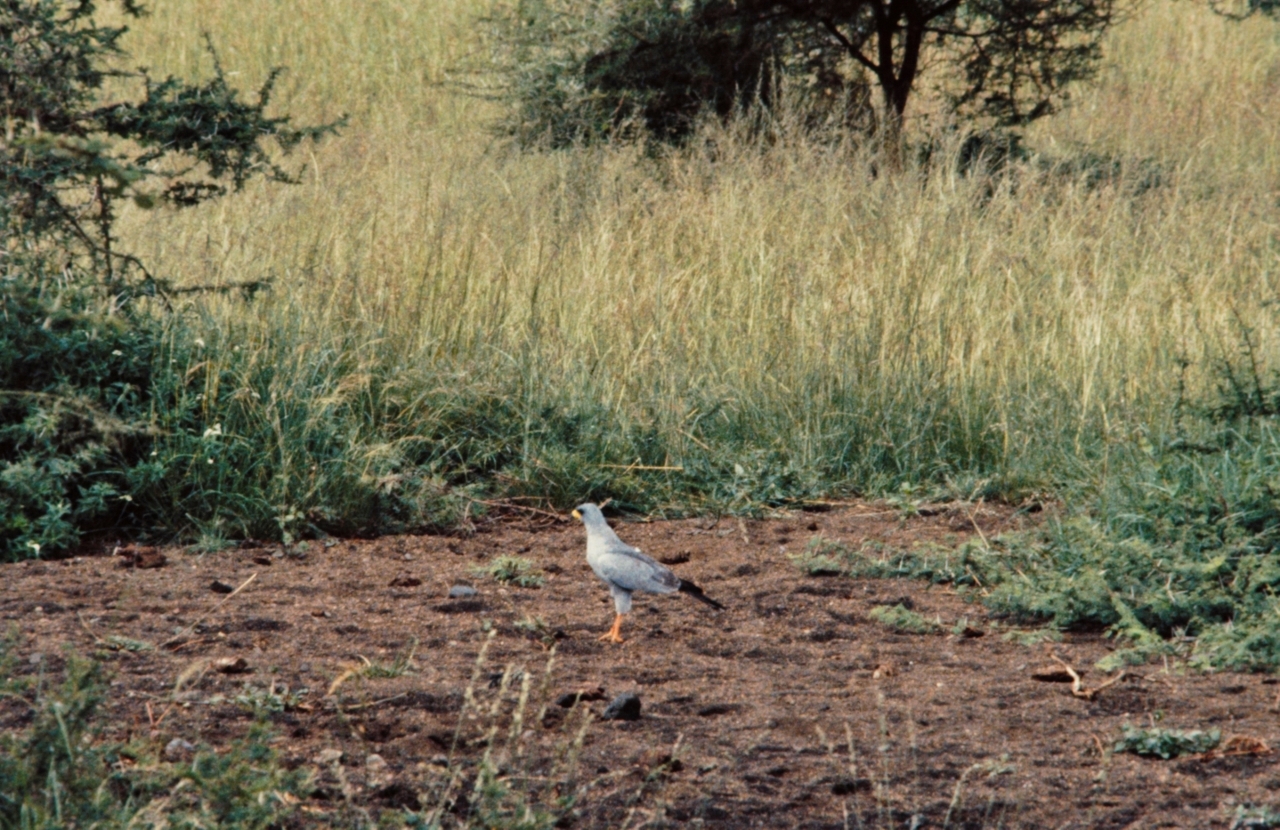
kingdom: Animalia
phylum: Chordata
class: Aves
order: Accipitriformes
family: Accipitridae
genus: Melierax
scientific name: Melierax poliopterus
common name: Eastern chanting goshawk
